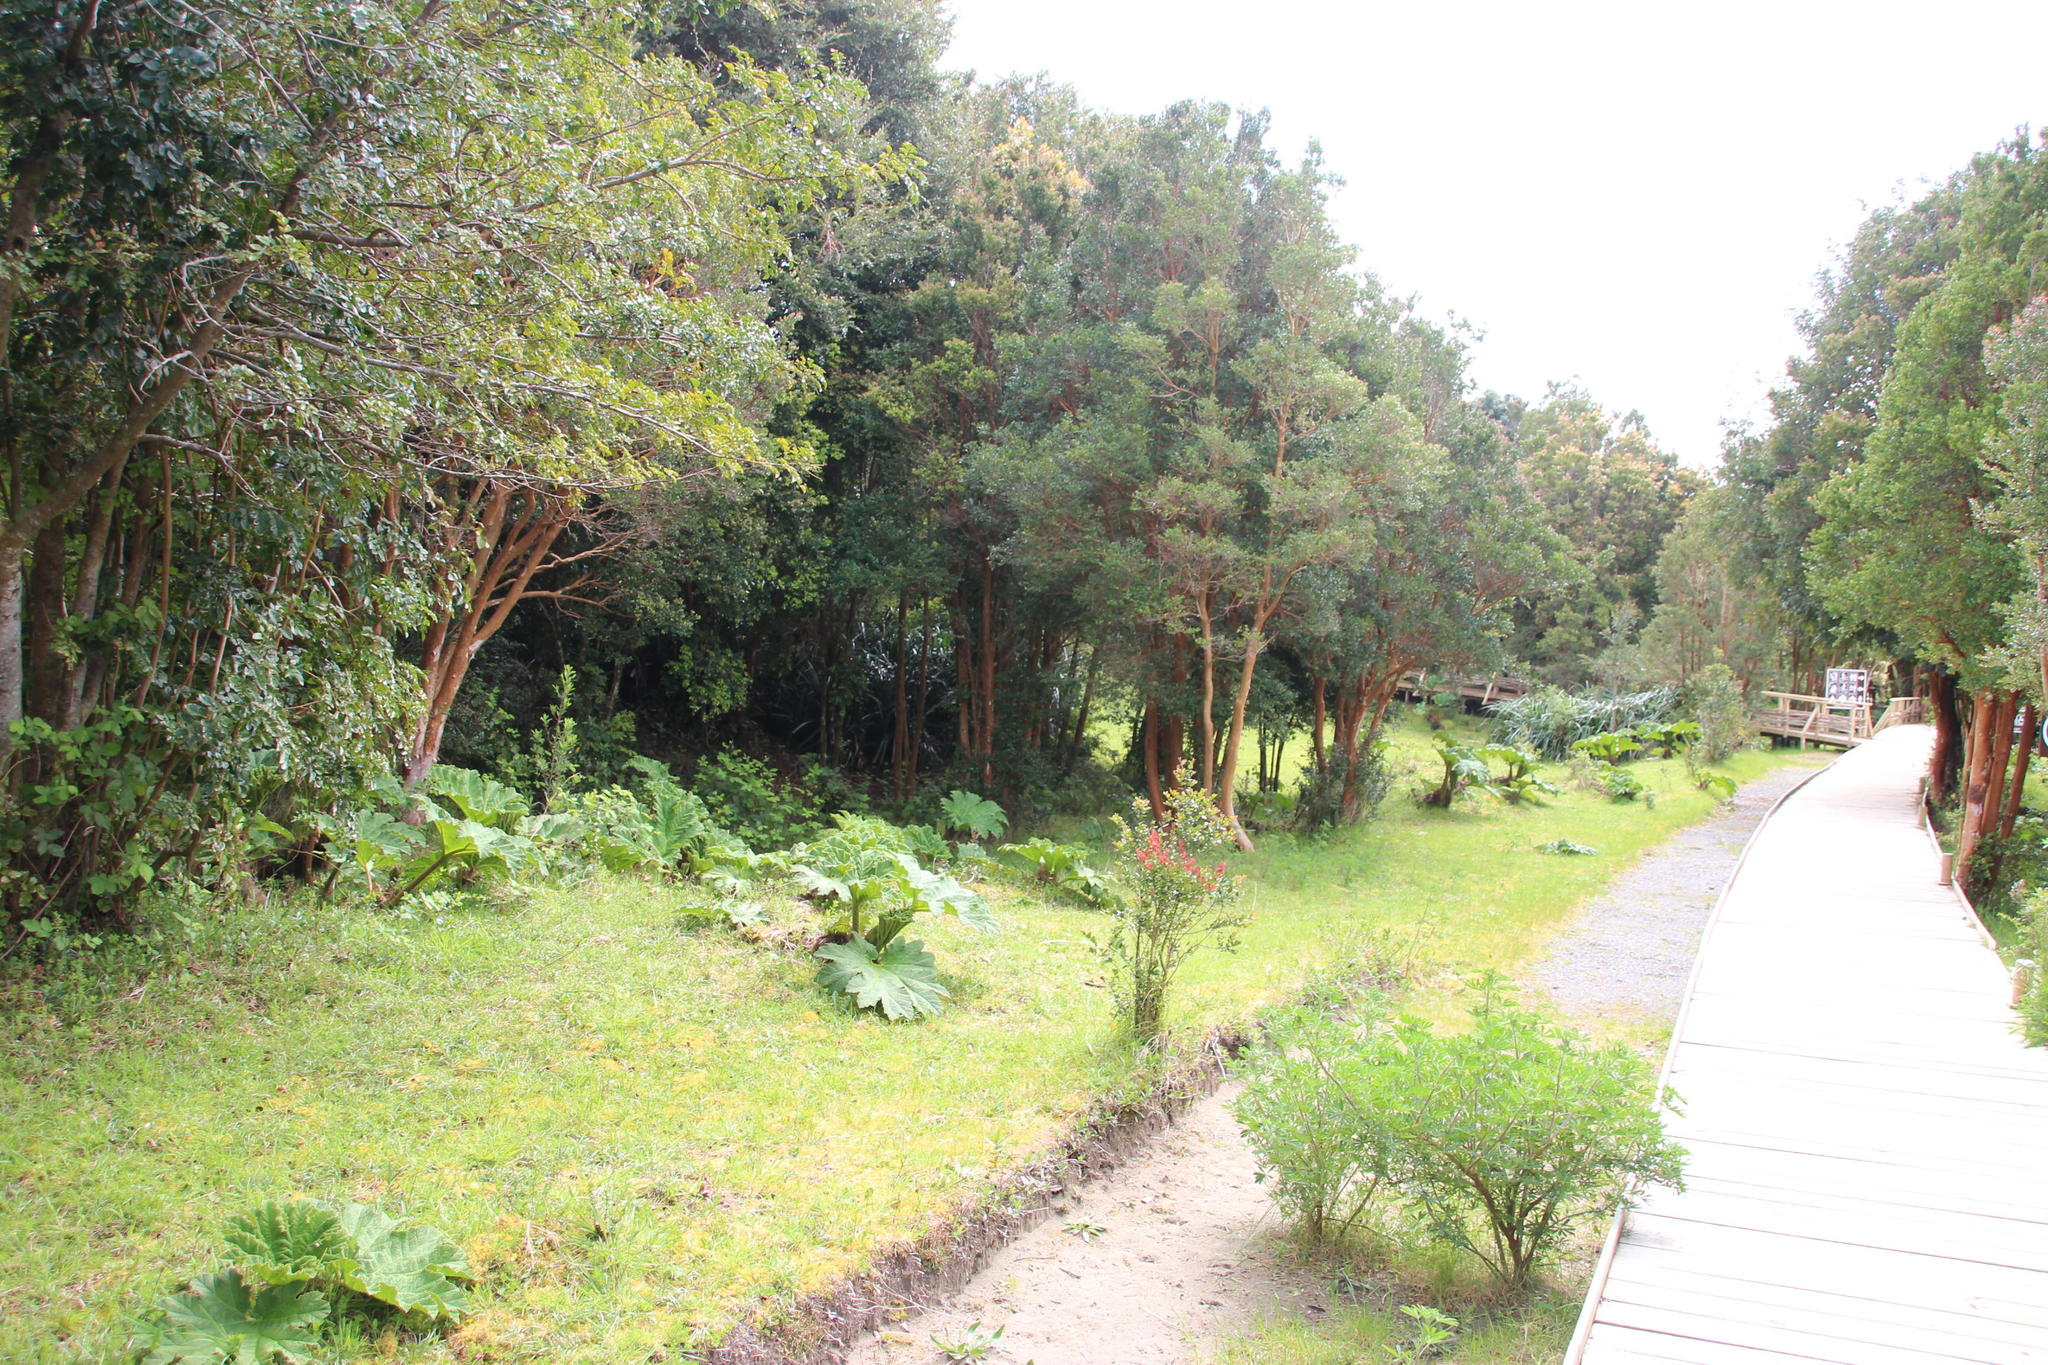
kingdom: Plantae
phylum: Tracheophyta
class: Magnoliopsida
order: Gunnerales
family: Gunneraceae
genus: Gunnera
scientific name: Gunnera tinctoria
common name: Giant-rhubarb
